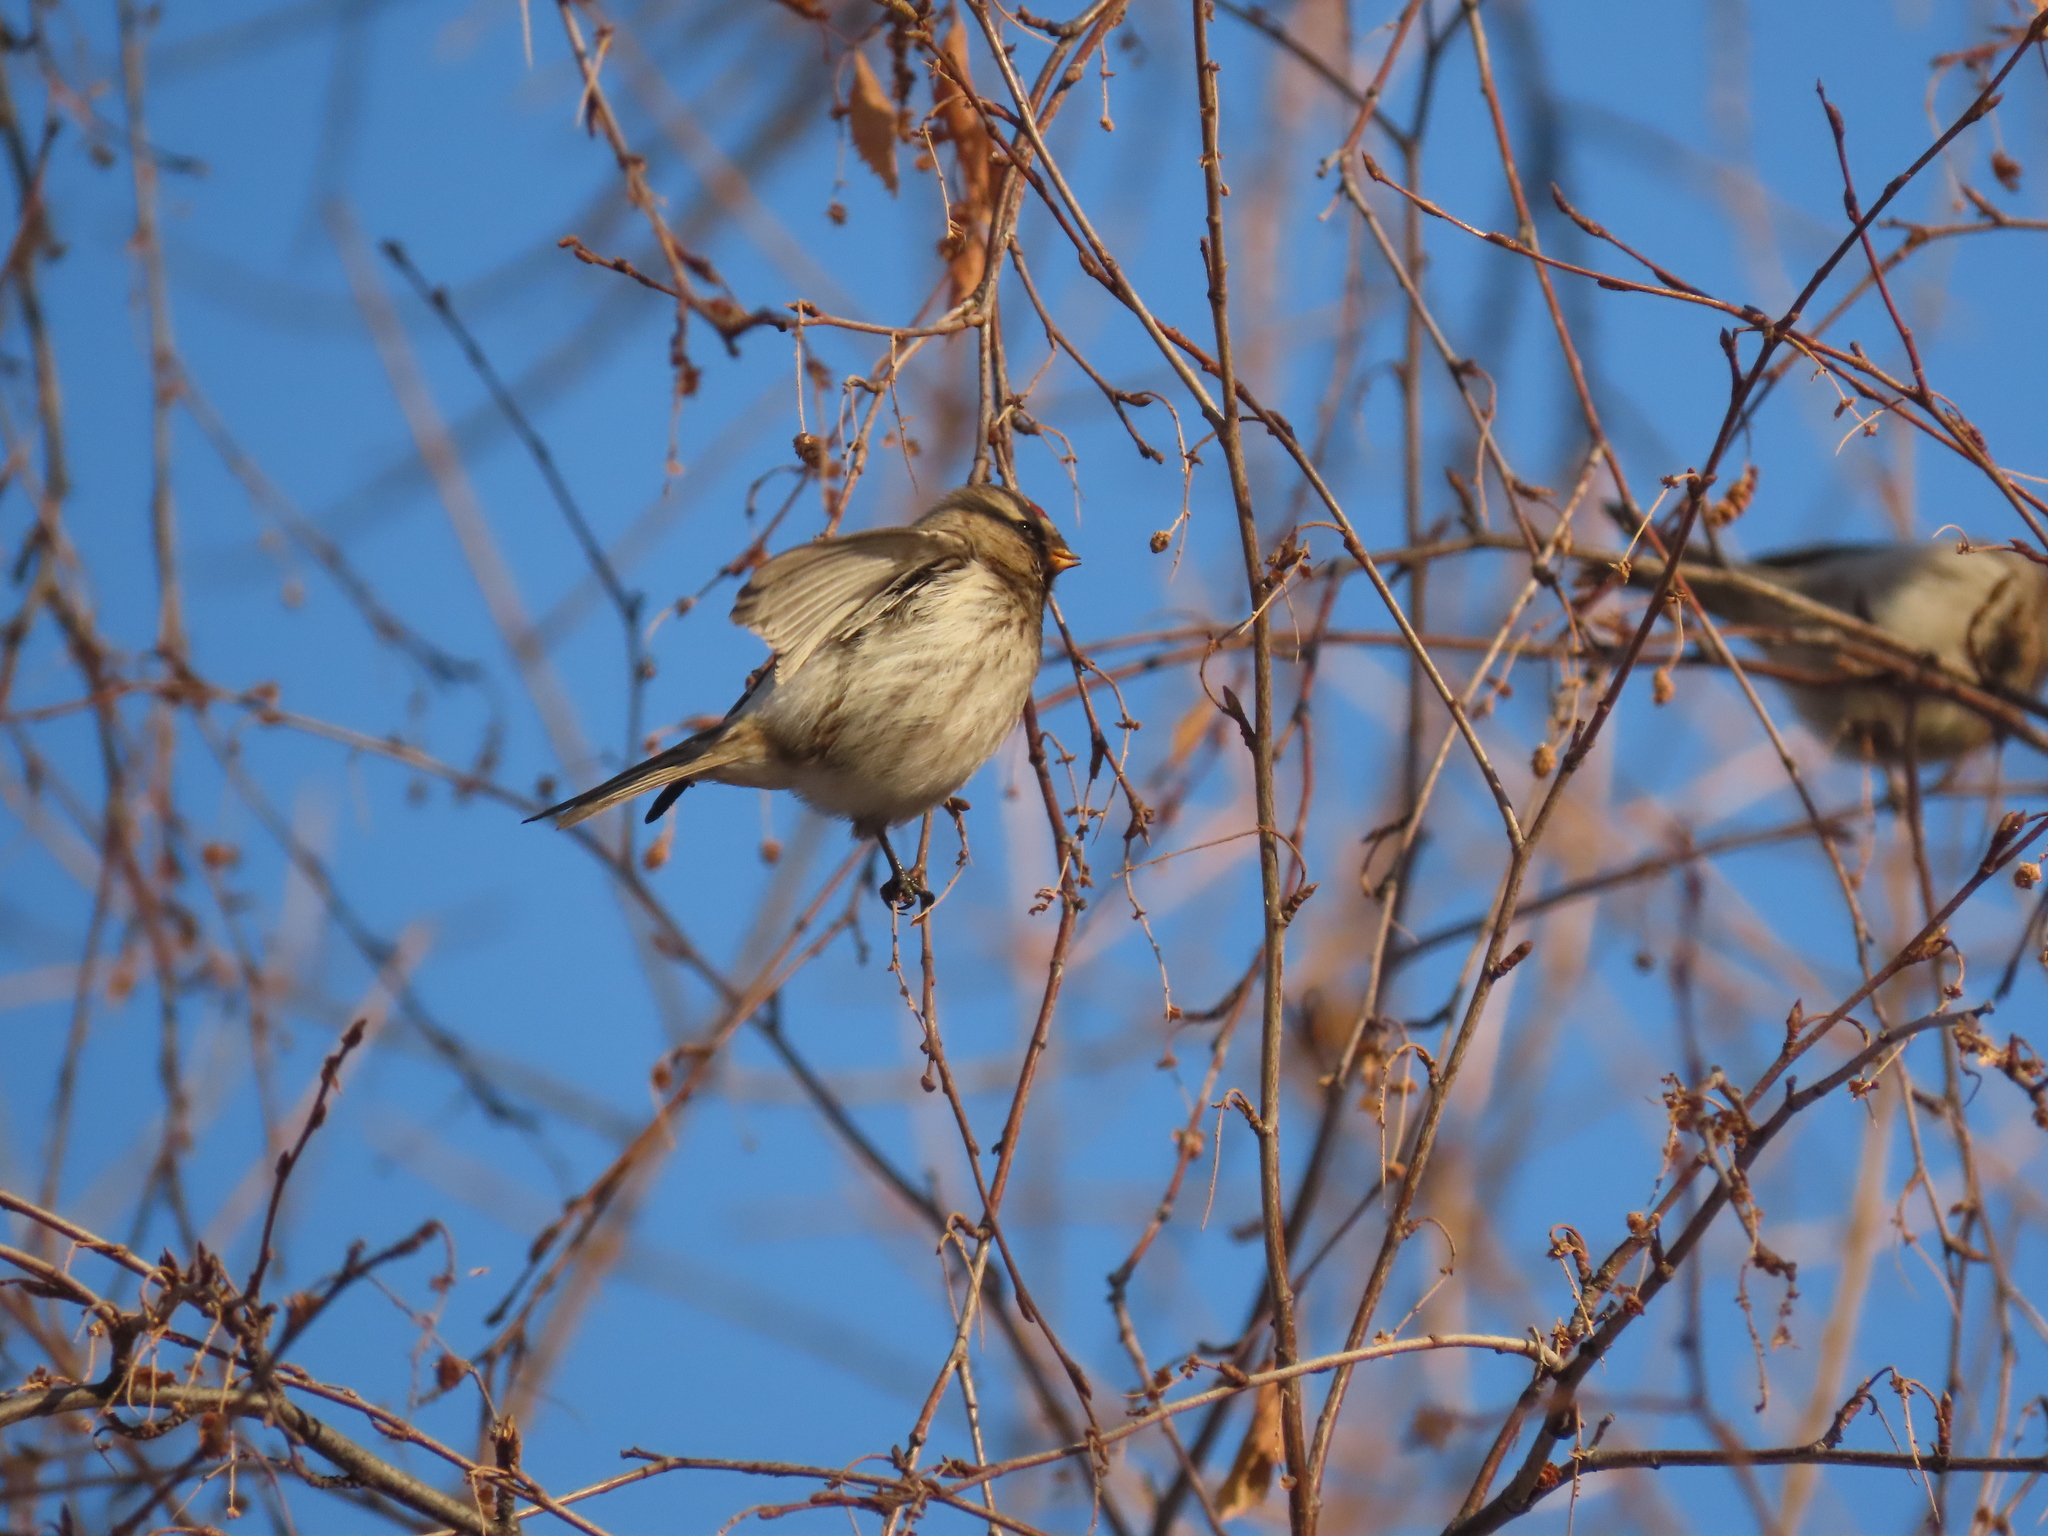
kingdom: Animalia
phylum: Chordata
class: Aves
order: Passeriformes
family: Fringillidae
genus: Acanthis
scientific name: Acanthis flammea
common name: Common redpoll
